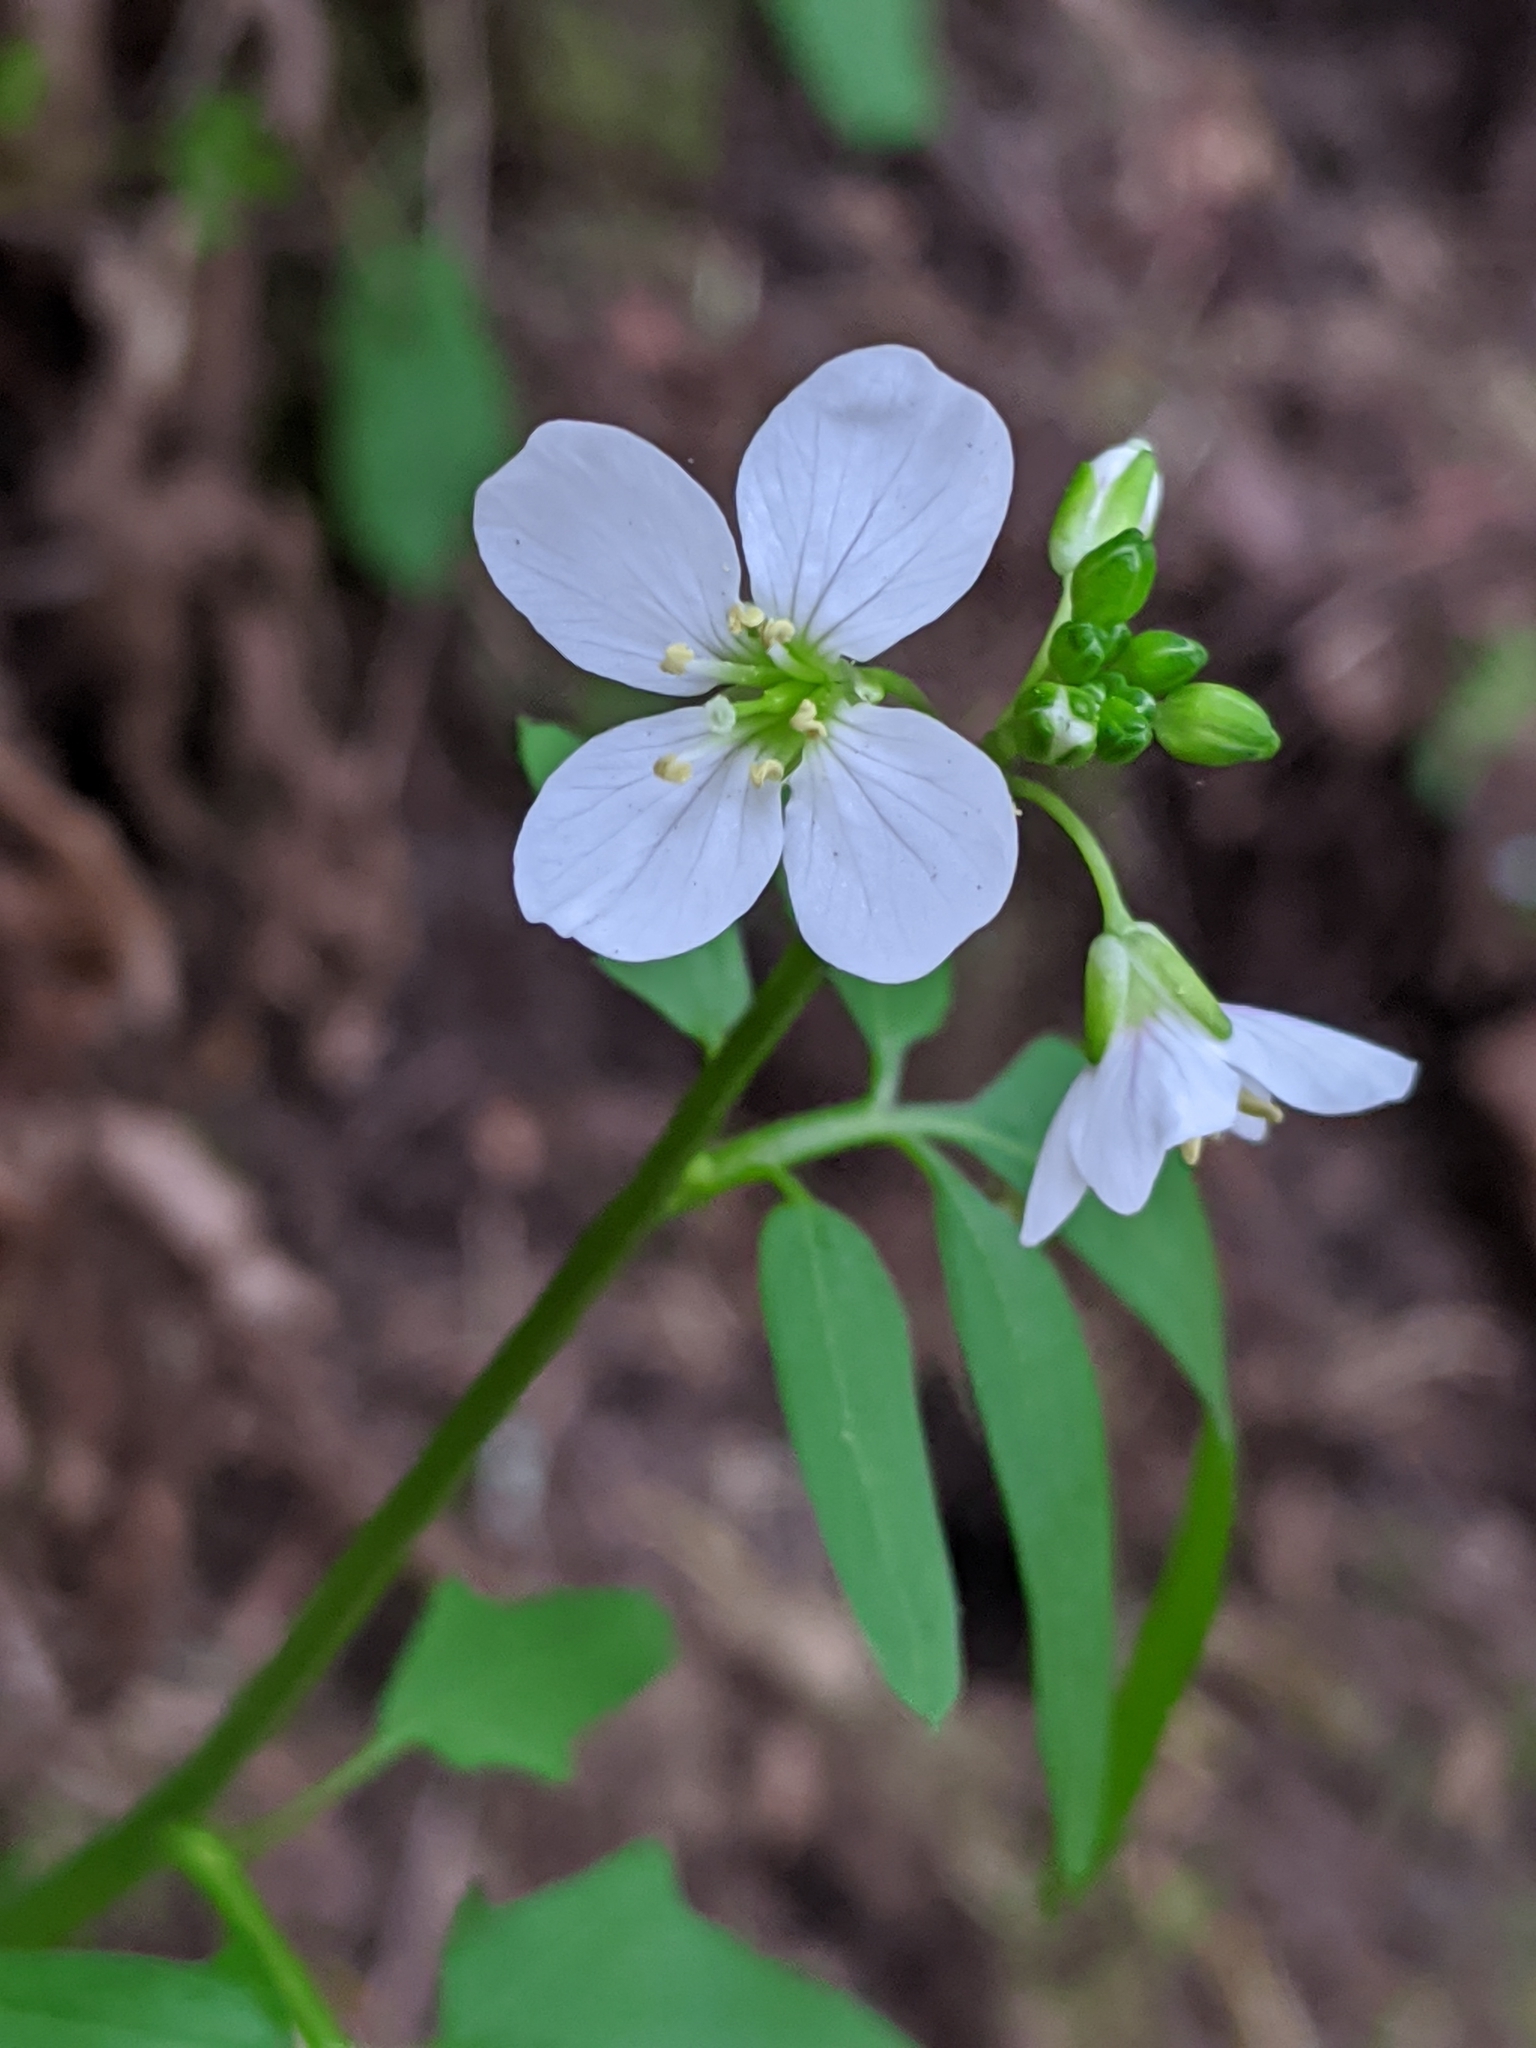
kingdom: Plantae
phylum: Tracheophyta
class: Magnoliopsida
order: Brassicales
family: Brassicaceae
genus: Cardamine
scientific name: Cardamine californica
